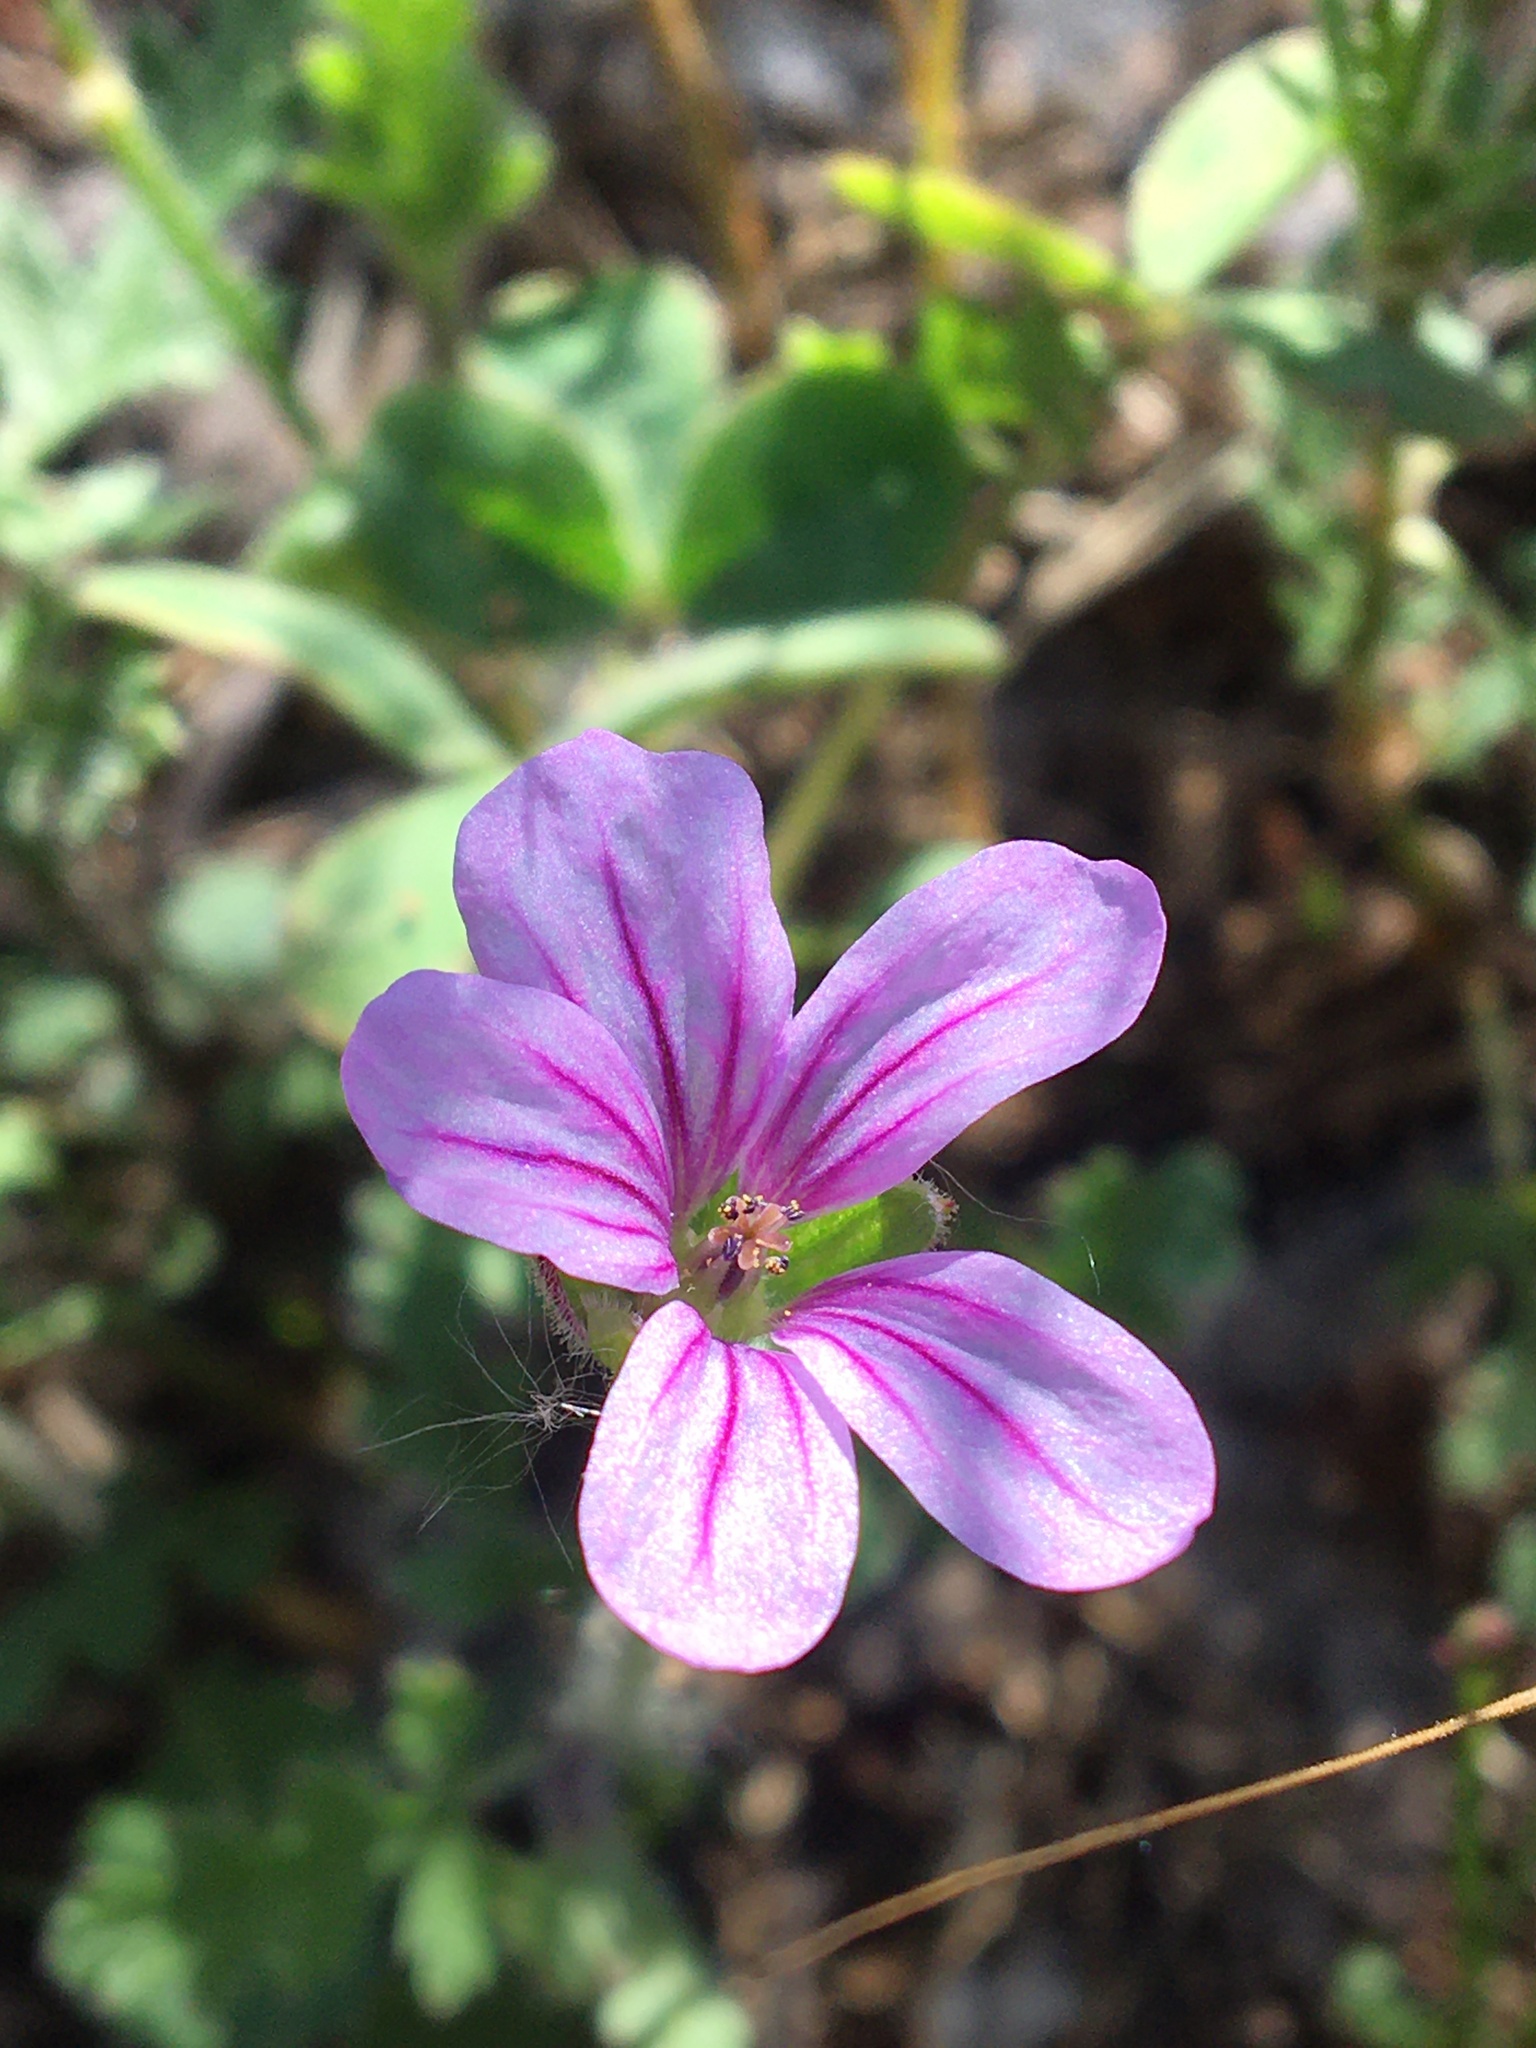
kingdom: Plantae
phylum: Tracheophyta
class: Magnoliopsida
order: Geraniales
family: Geraniaceae
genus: Erodium
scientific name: Erodium botrys
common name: Mediterranean stork's-bill
